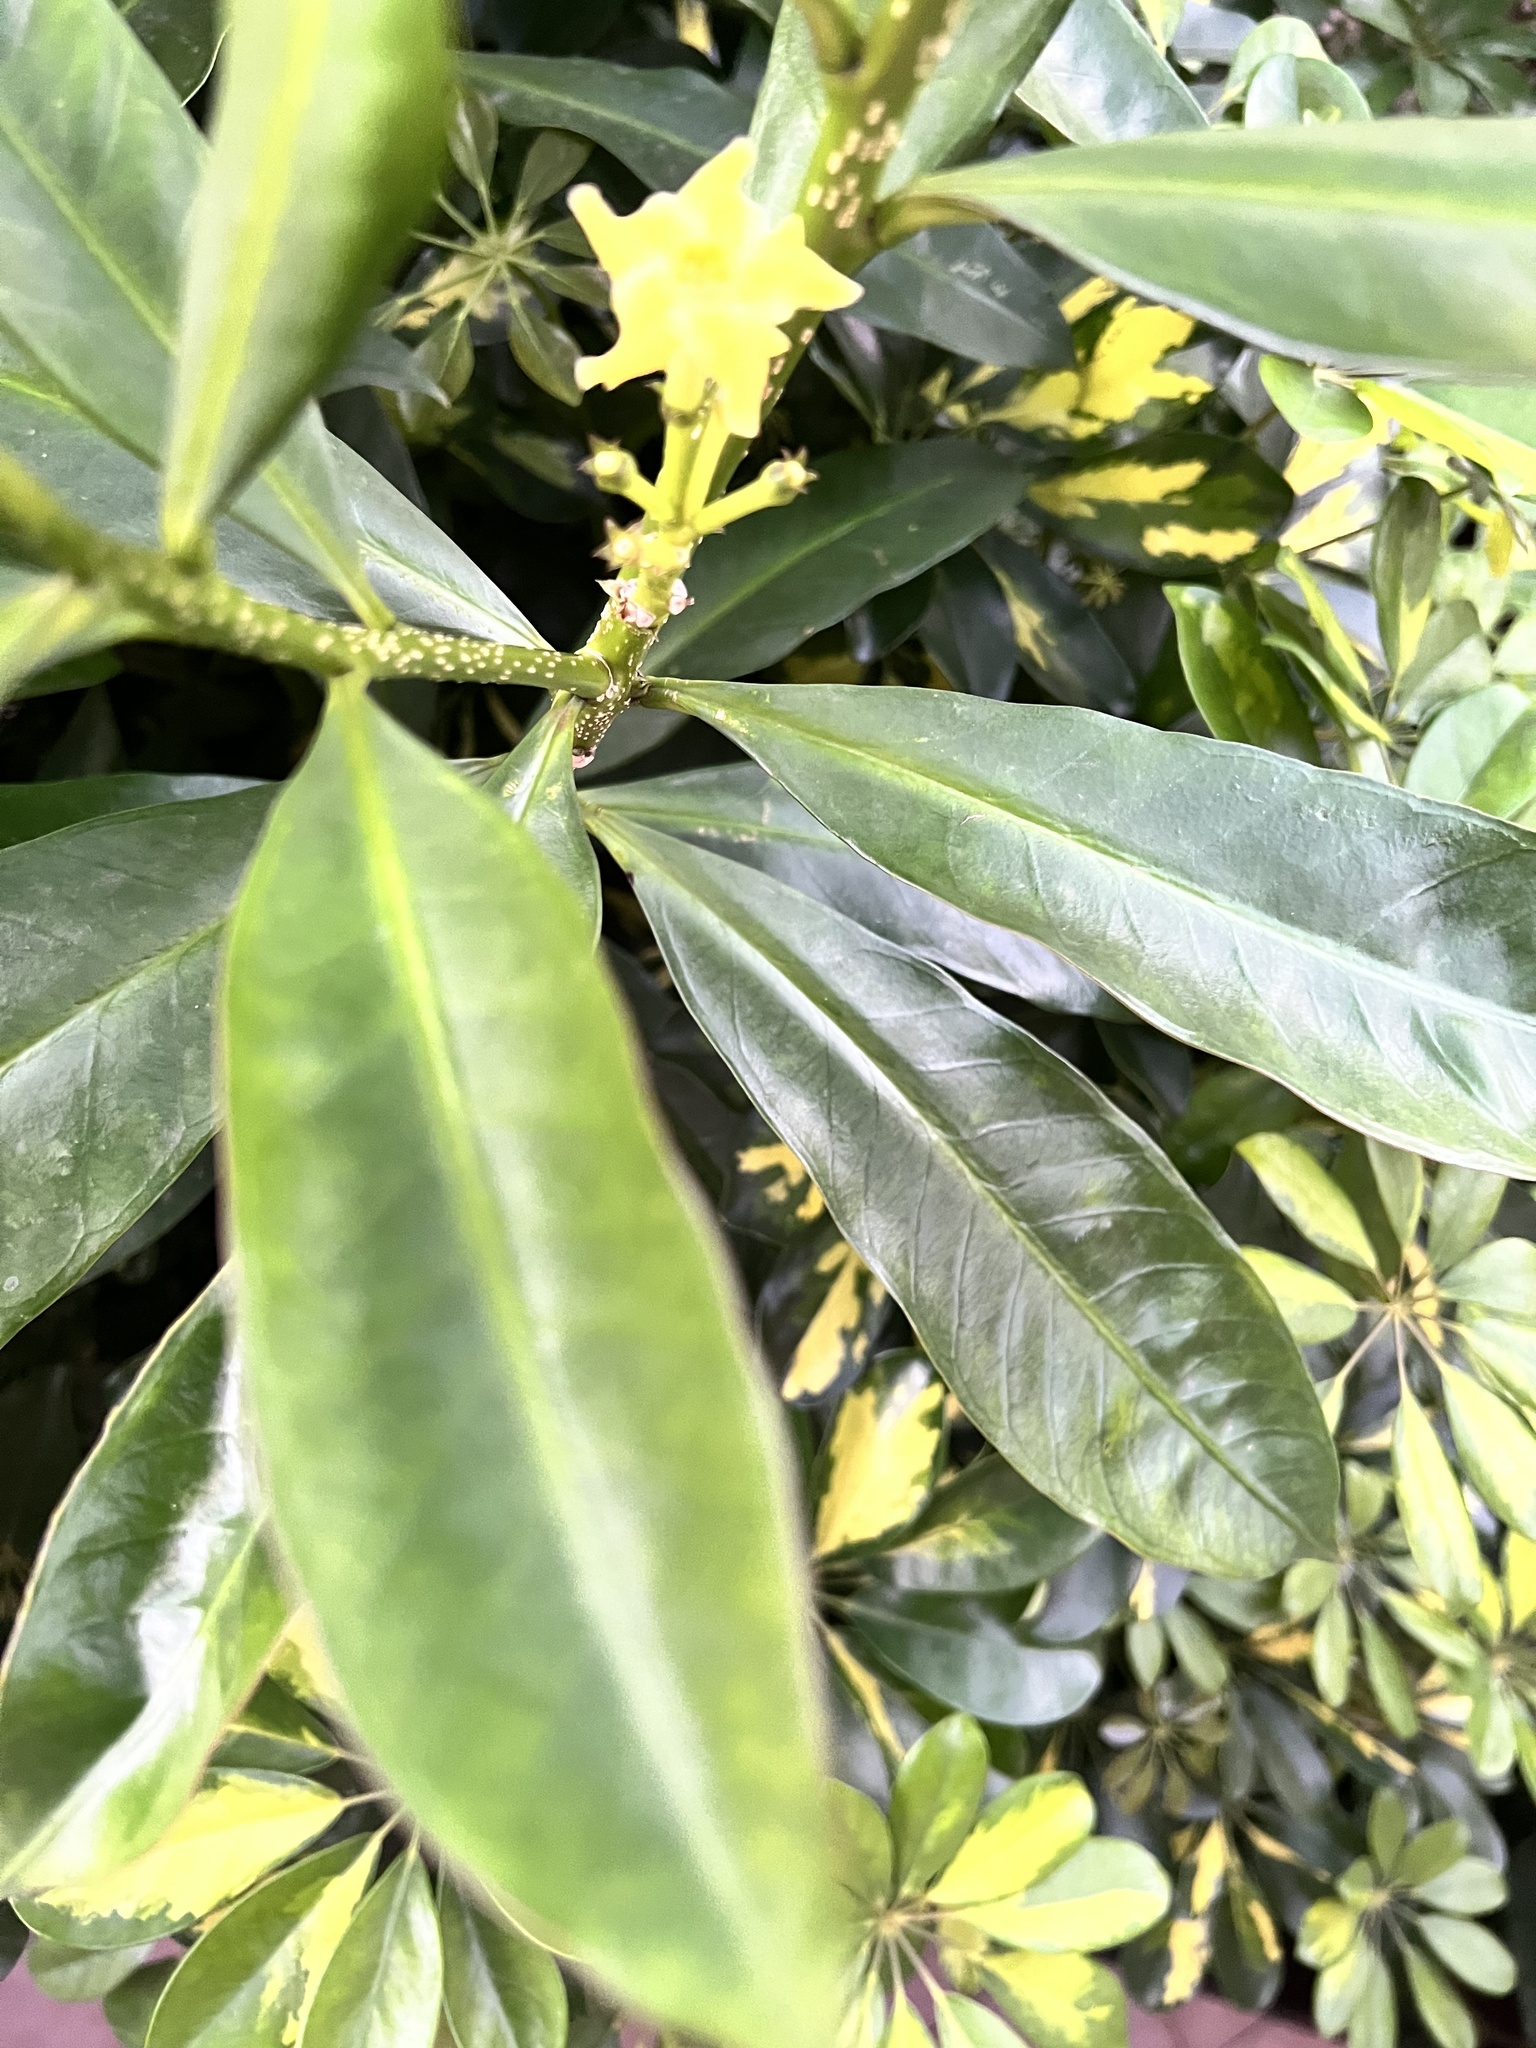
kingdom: Plantae
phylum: Tracheophyta
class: Magnoliopsida
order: Gentianales
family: Apocynaceae
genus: Thevetia
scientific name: Thevetia ahouai
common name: Broadleaf thevetia
